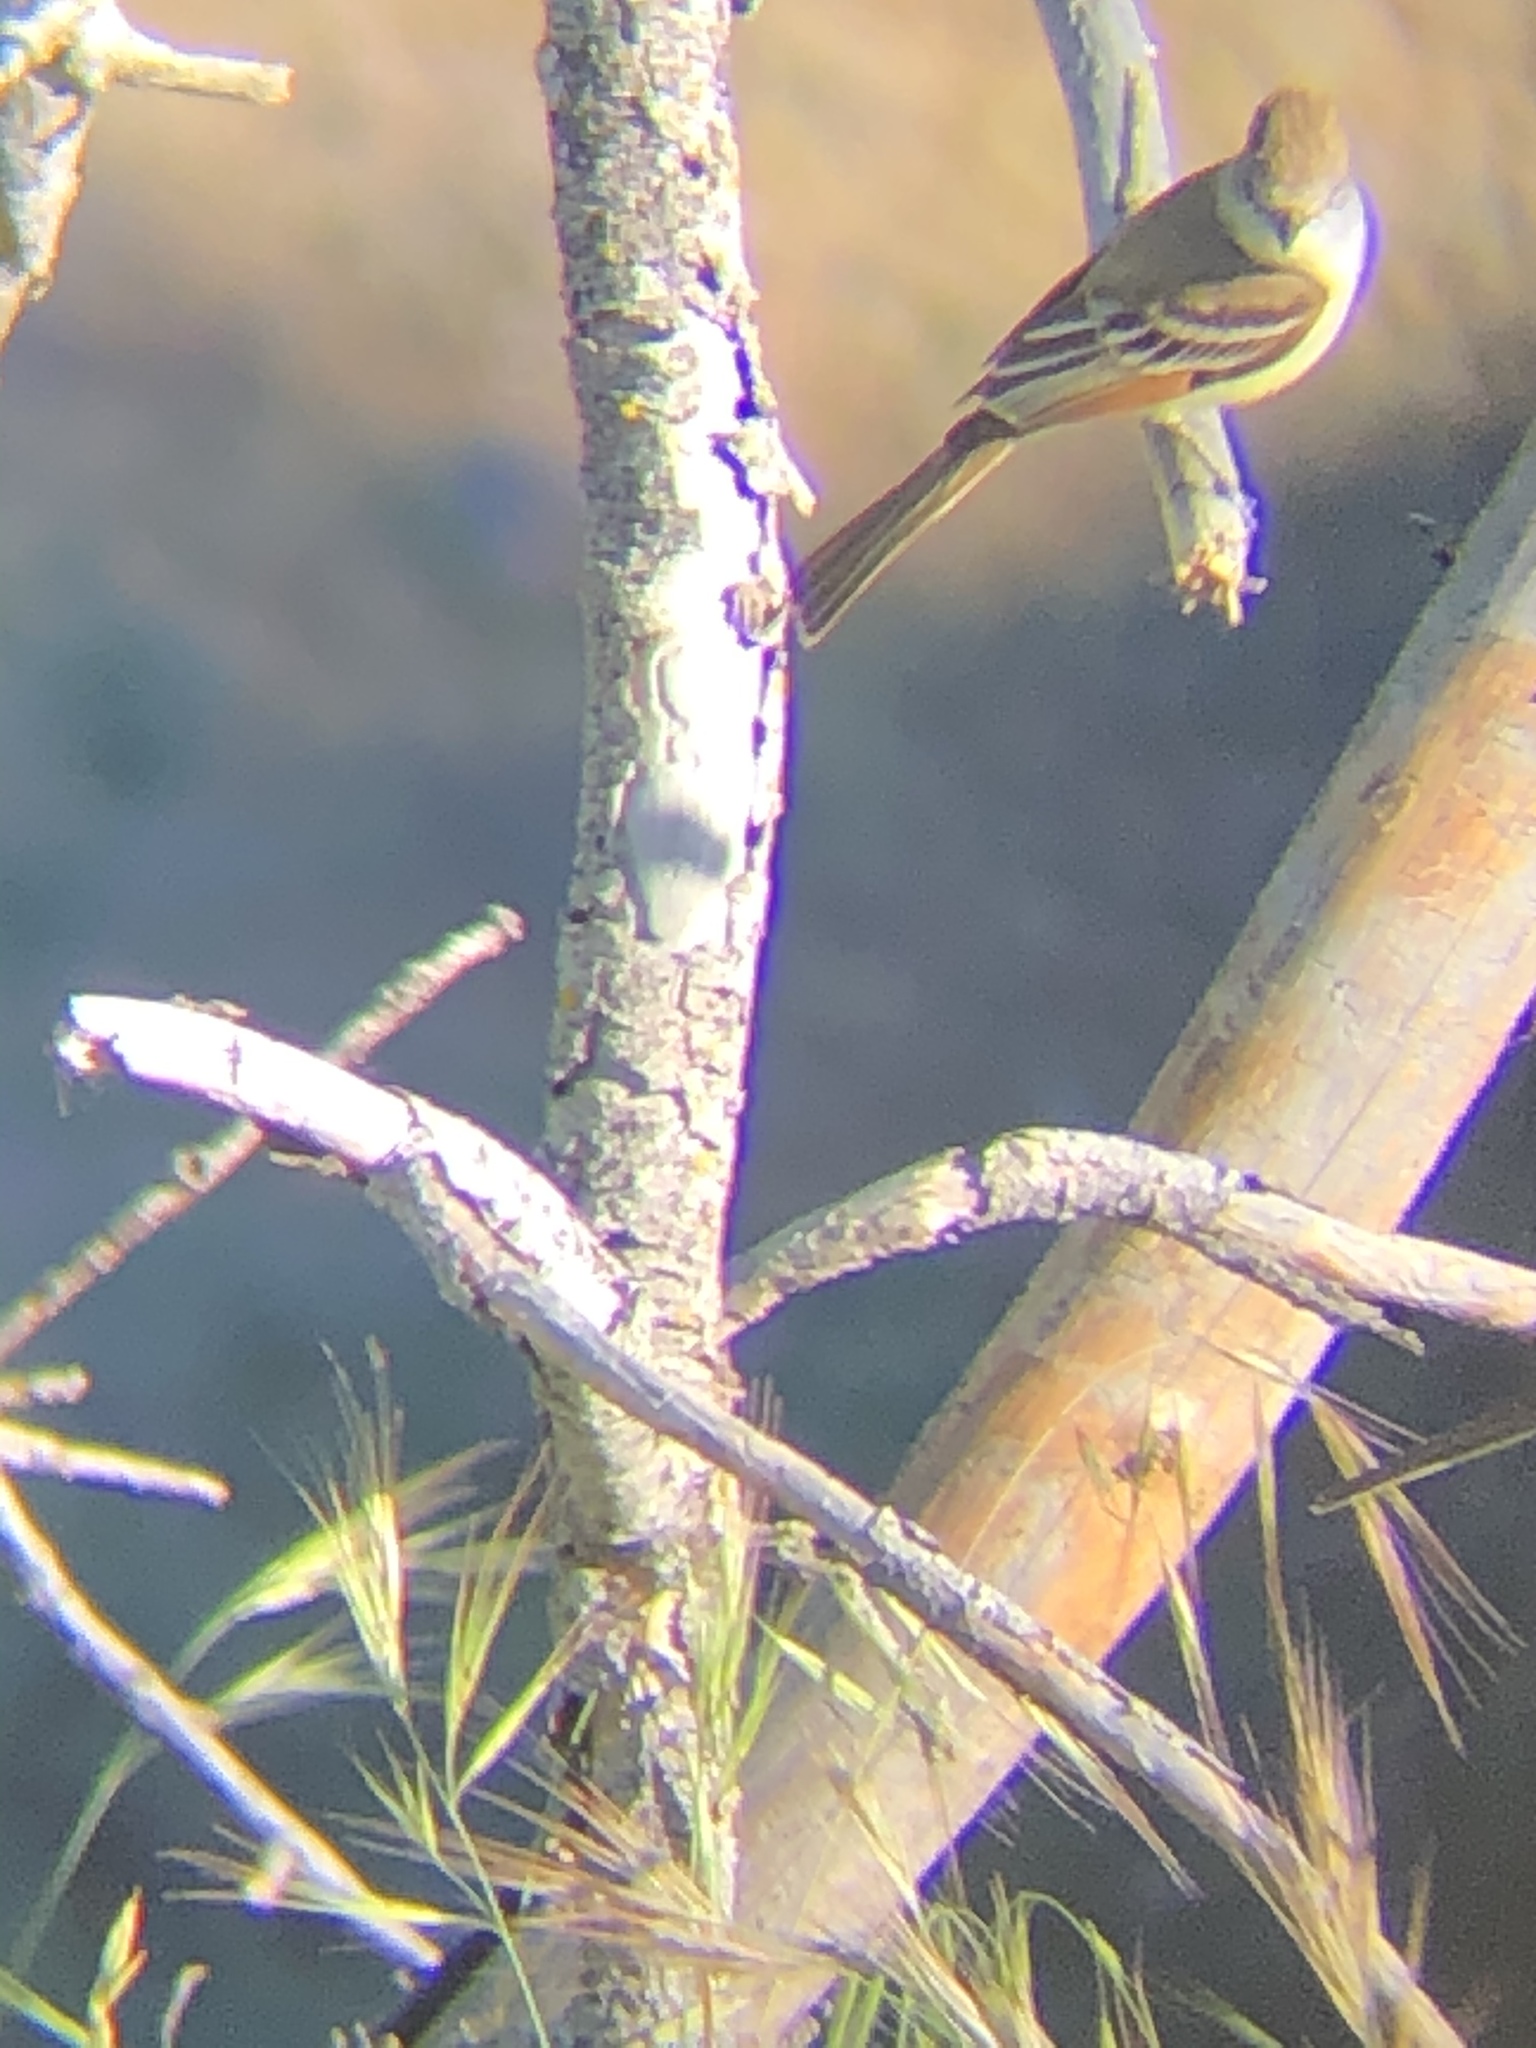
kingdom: Animalia
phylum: Chordata
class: Aves
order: Passeriformes
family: Tyrannidae
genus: Myiarchus
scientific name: Myiarchus cinerascens
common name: Ash-throated flycatcher
